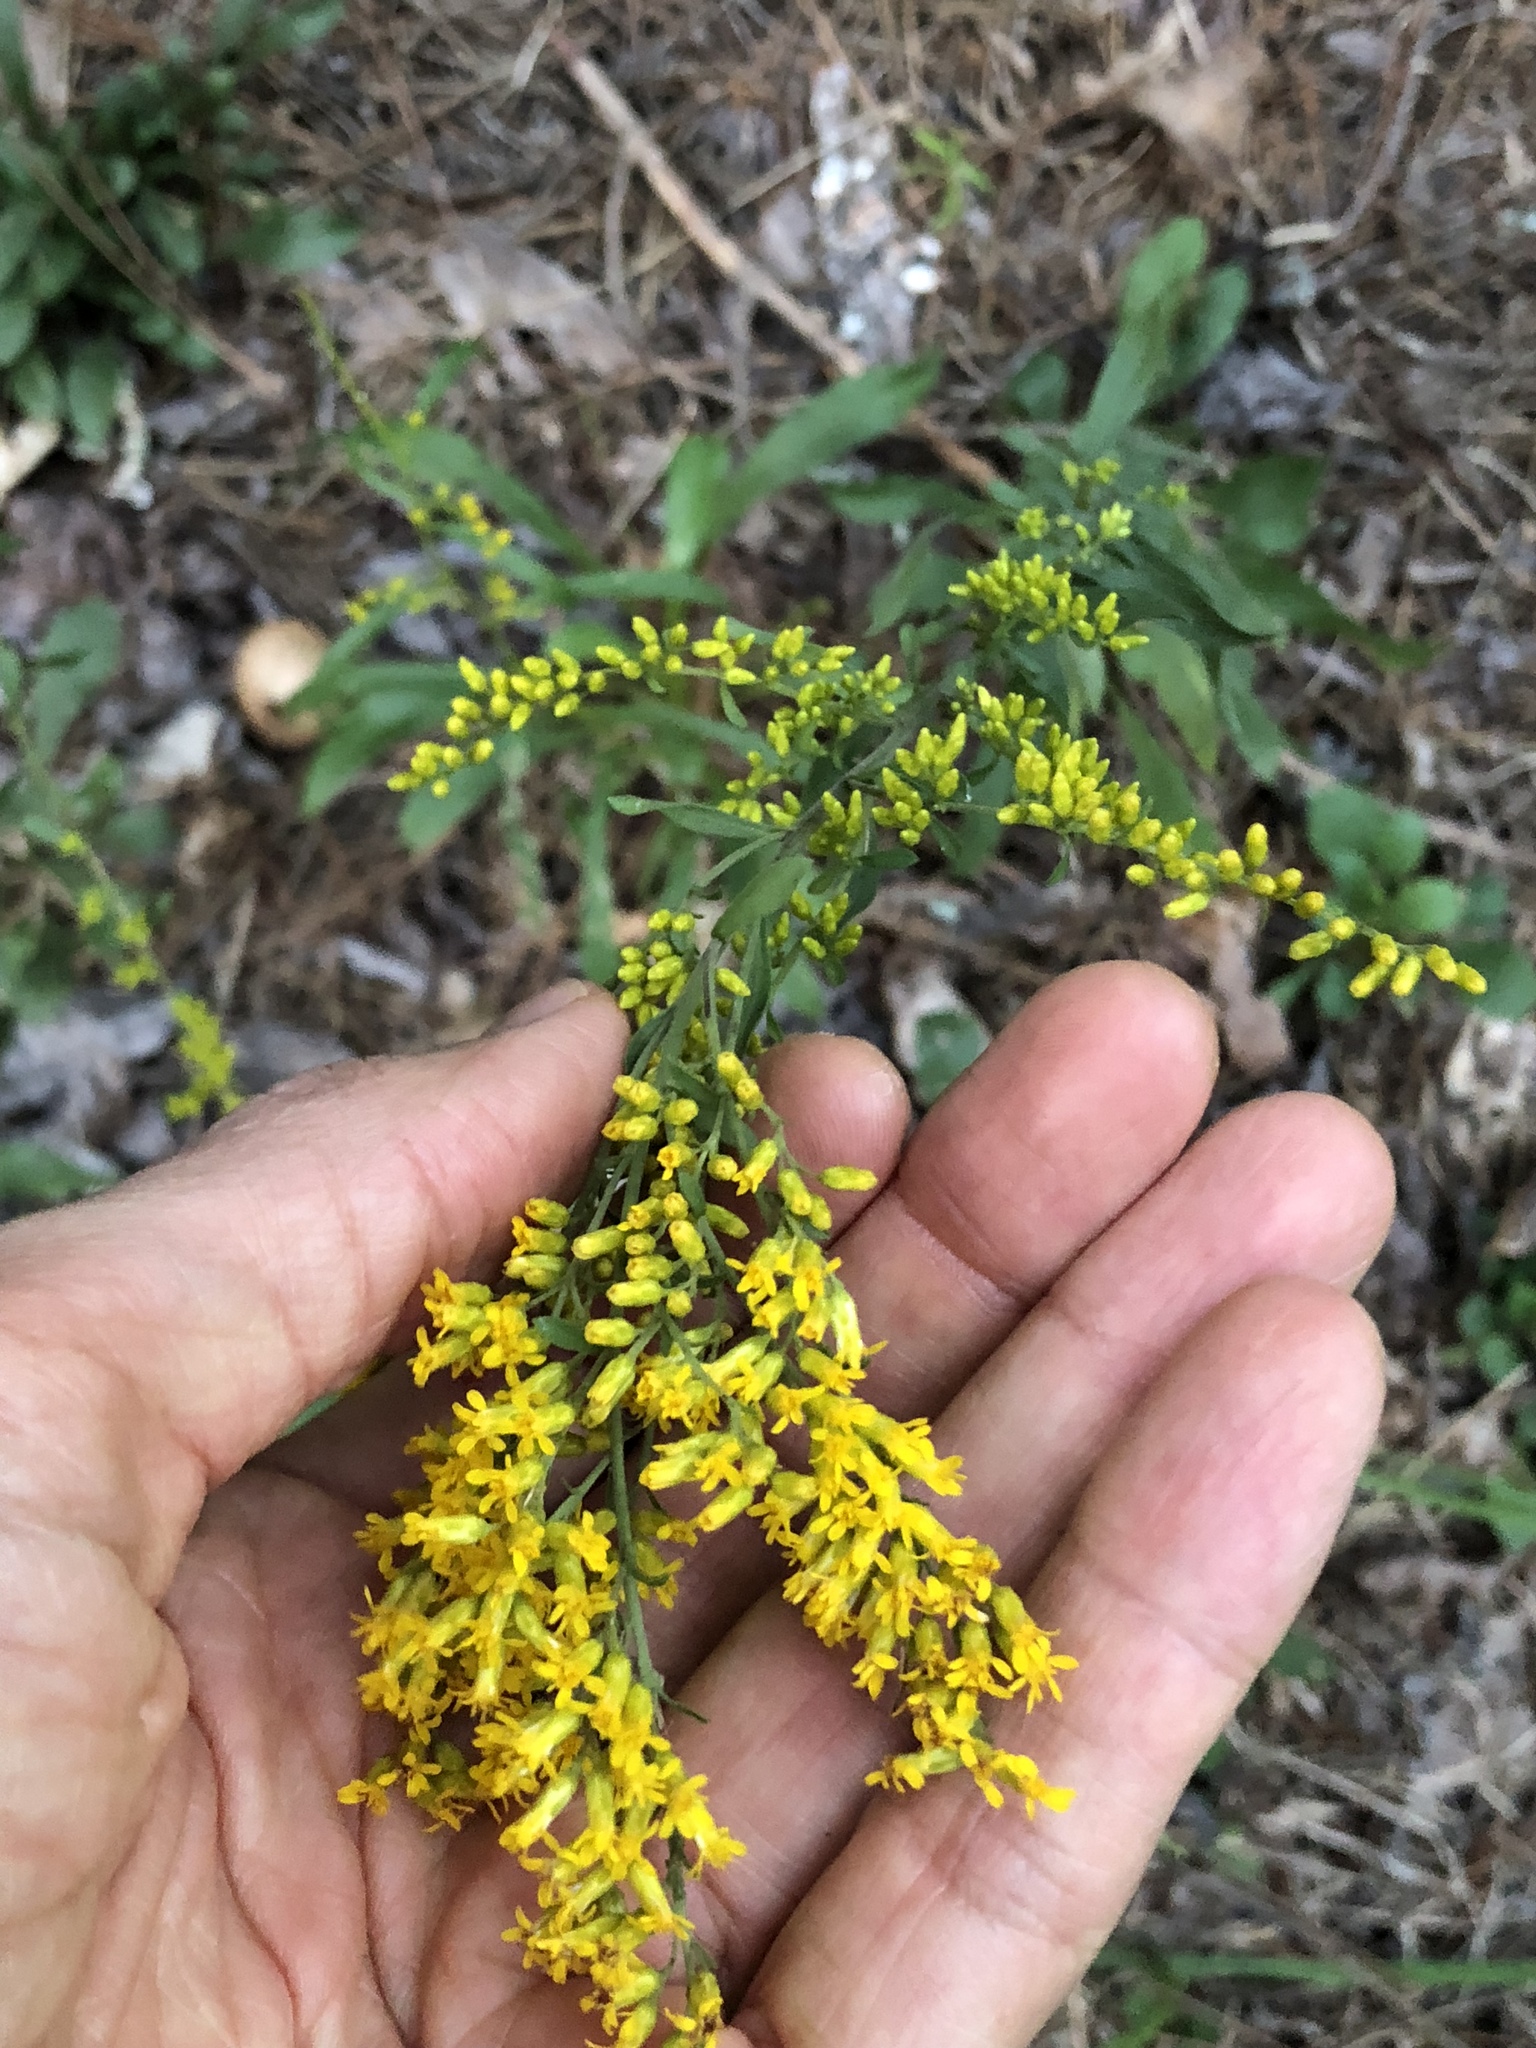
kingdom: Plantae
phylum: Tracheophyta
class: Magnoliopsida
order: Asterales
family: Asteraceae
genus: Solidago
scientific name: Solidago nemoralis
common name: Grey goldenrod
